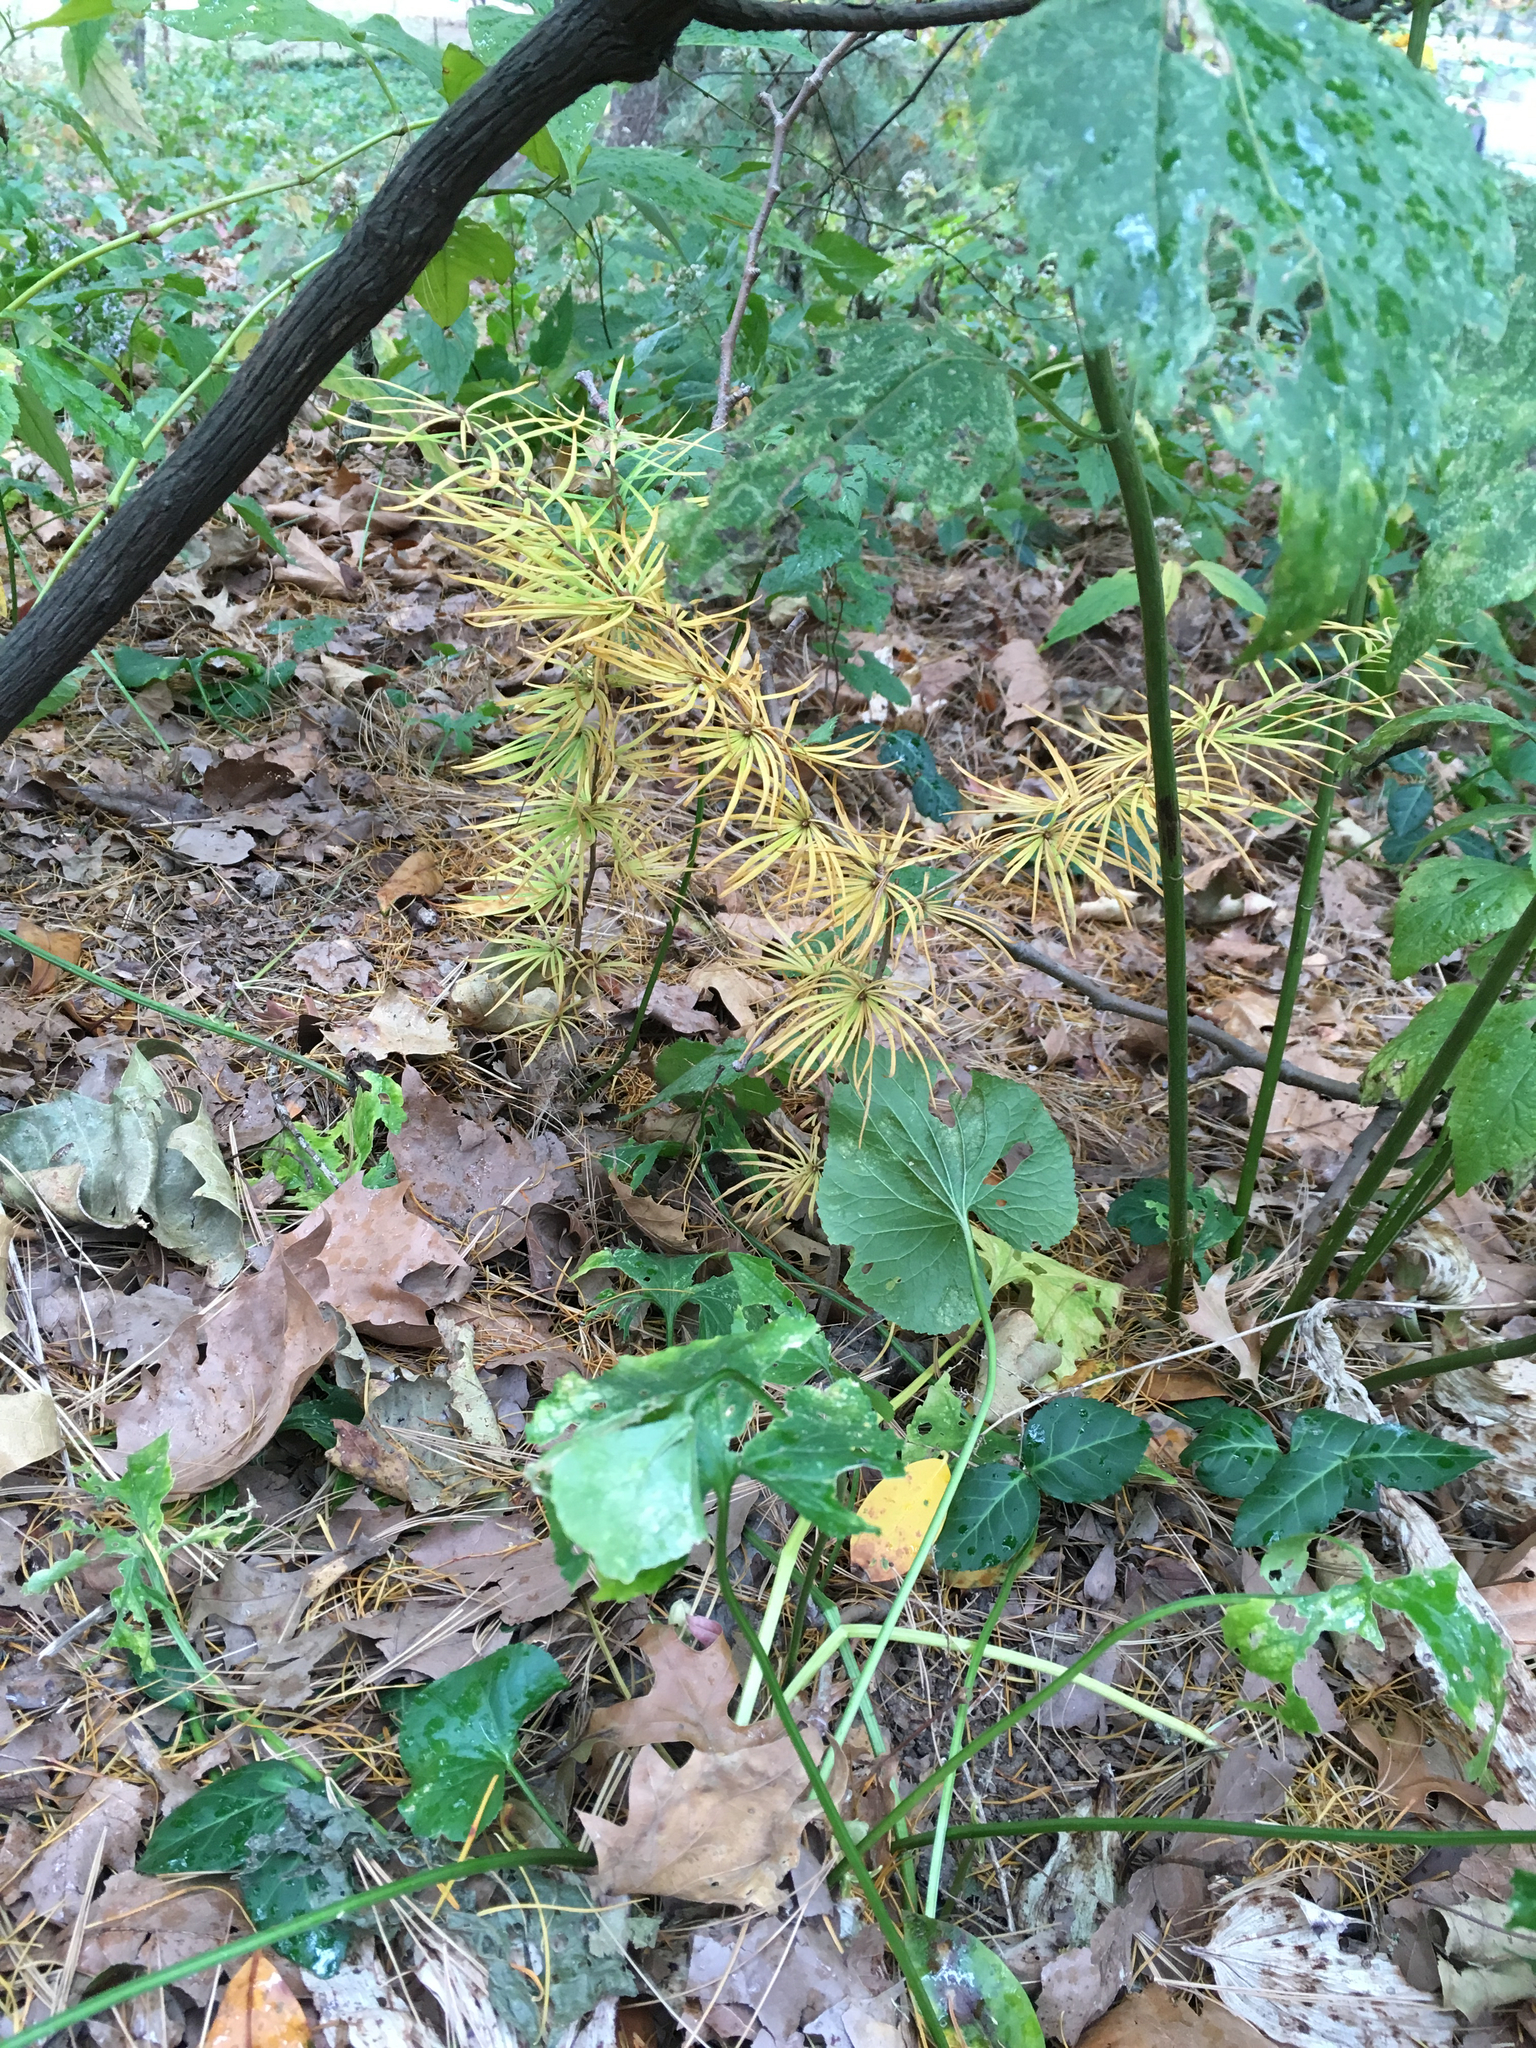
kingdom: Plantae
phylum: Tracheophyta
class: Pinopsida
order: Pinales
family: Pinaceae
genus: Pseudolarix
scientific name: Pseudolarix amabilis
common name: Chinese golden larch
